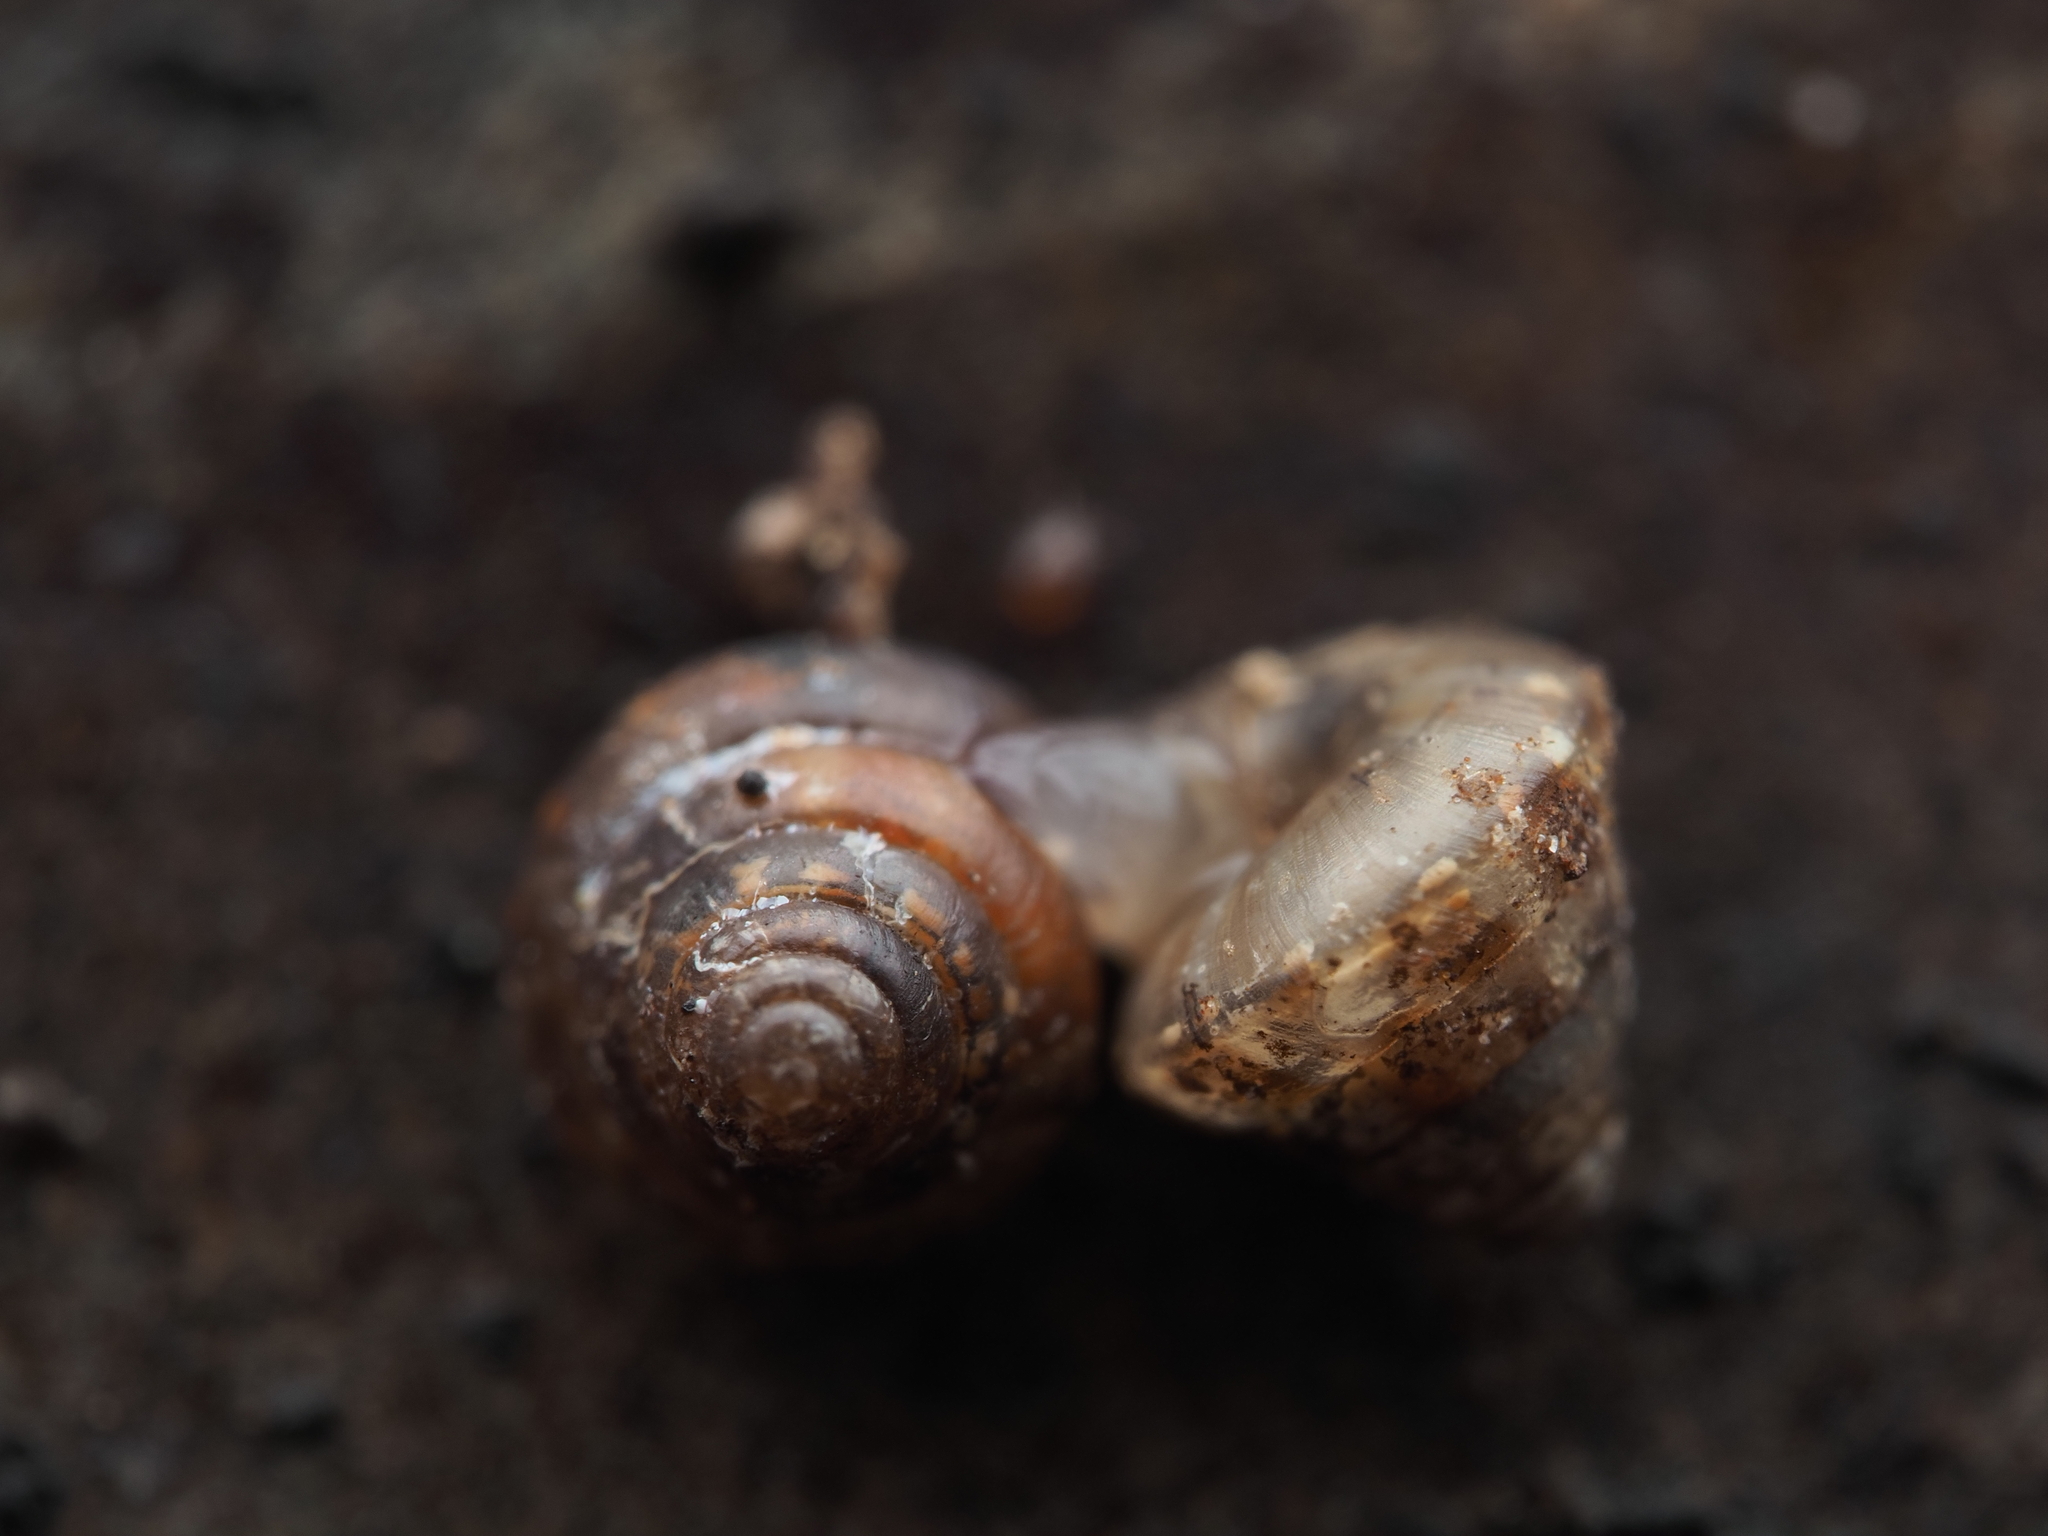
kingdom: Animalia
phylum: Mollusca
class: Gastropoda
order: Stylommatophora
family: Punctidae
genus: Phrixgnathus
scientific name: Phrixgnathus erigone
